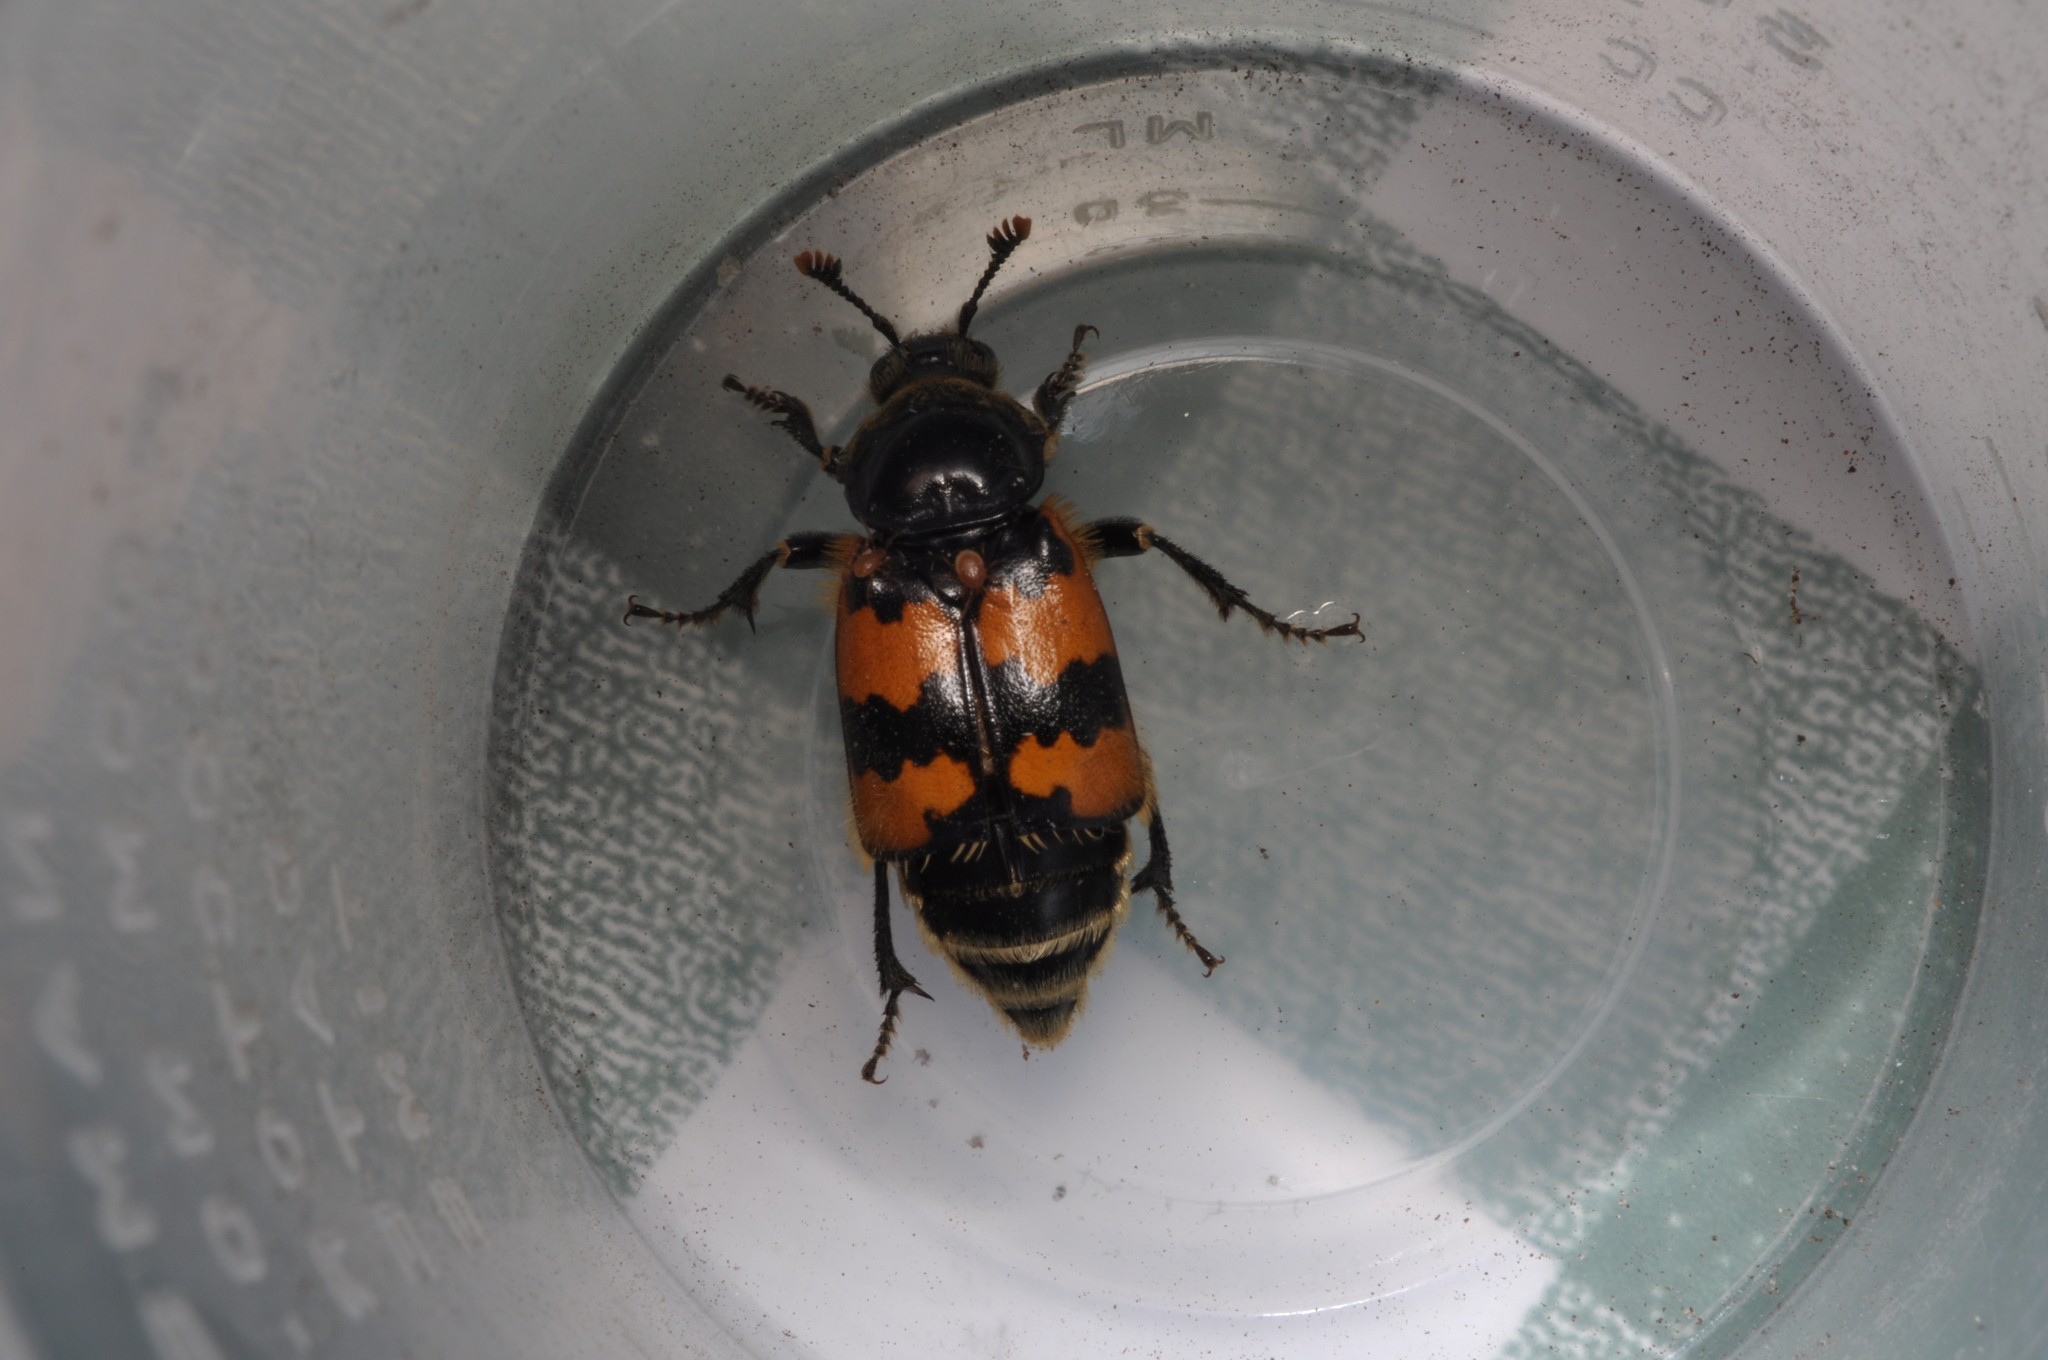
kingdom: Animalia
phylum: Arthropoda
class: Insecta
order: Coleoptera
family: Staphylinidae
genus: Nicrophorus
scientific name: Nicrophorus vespillo
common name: Common burying beetle
